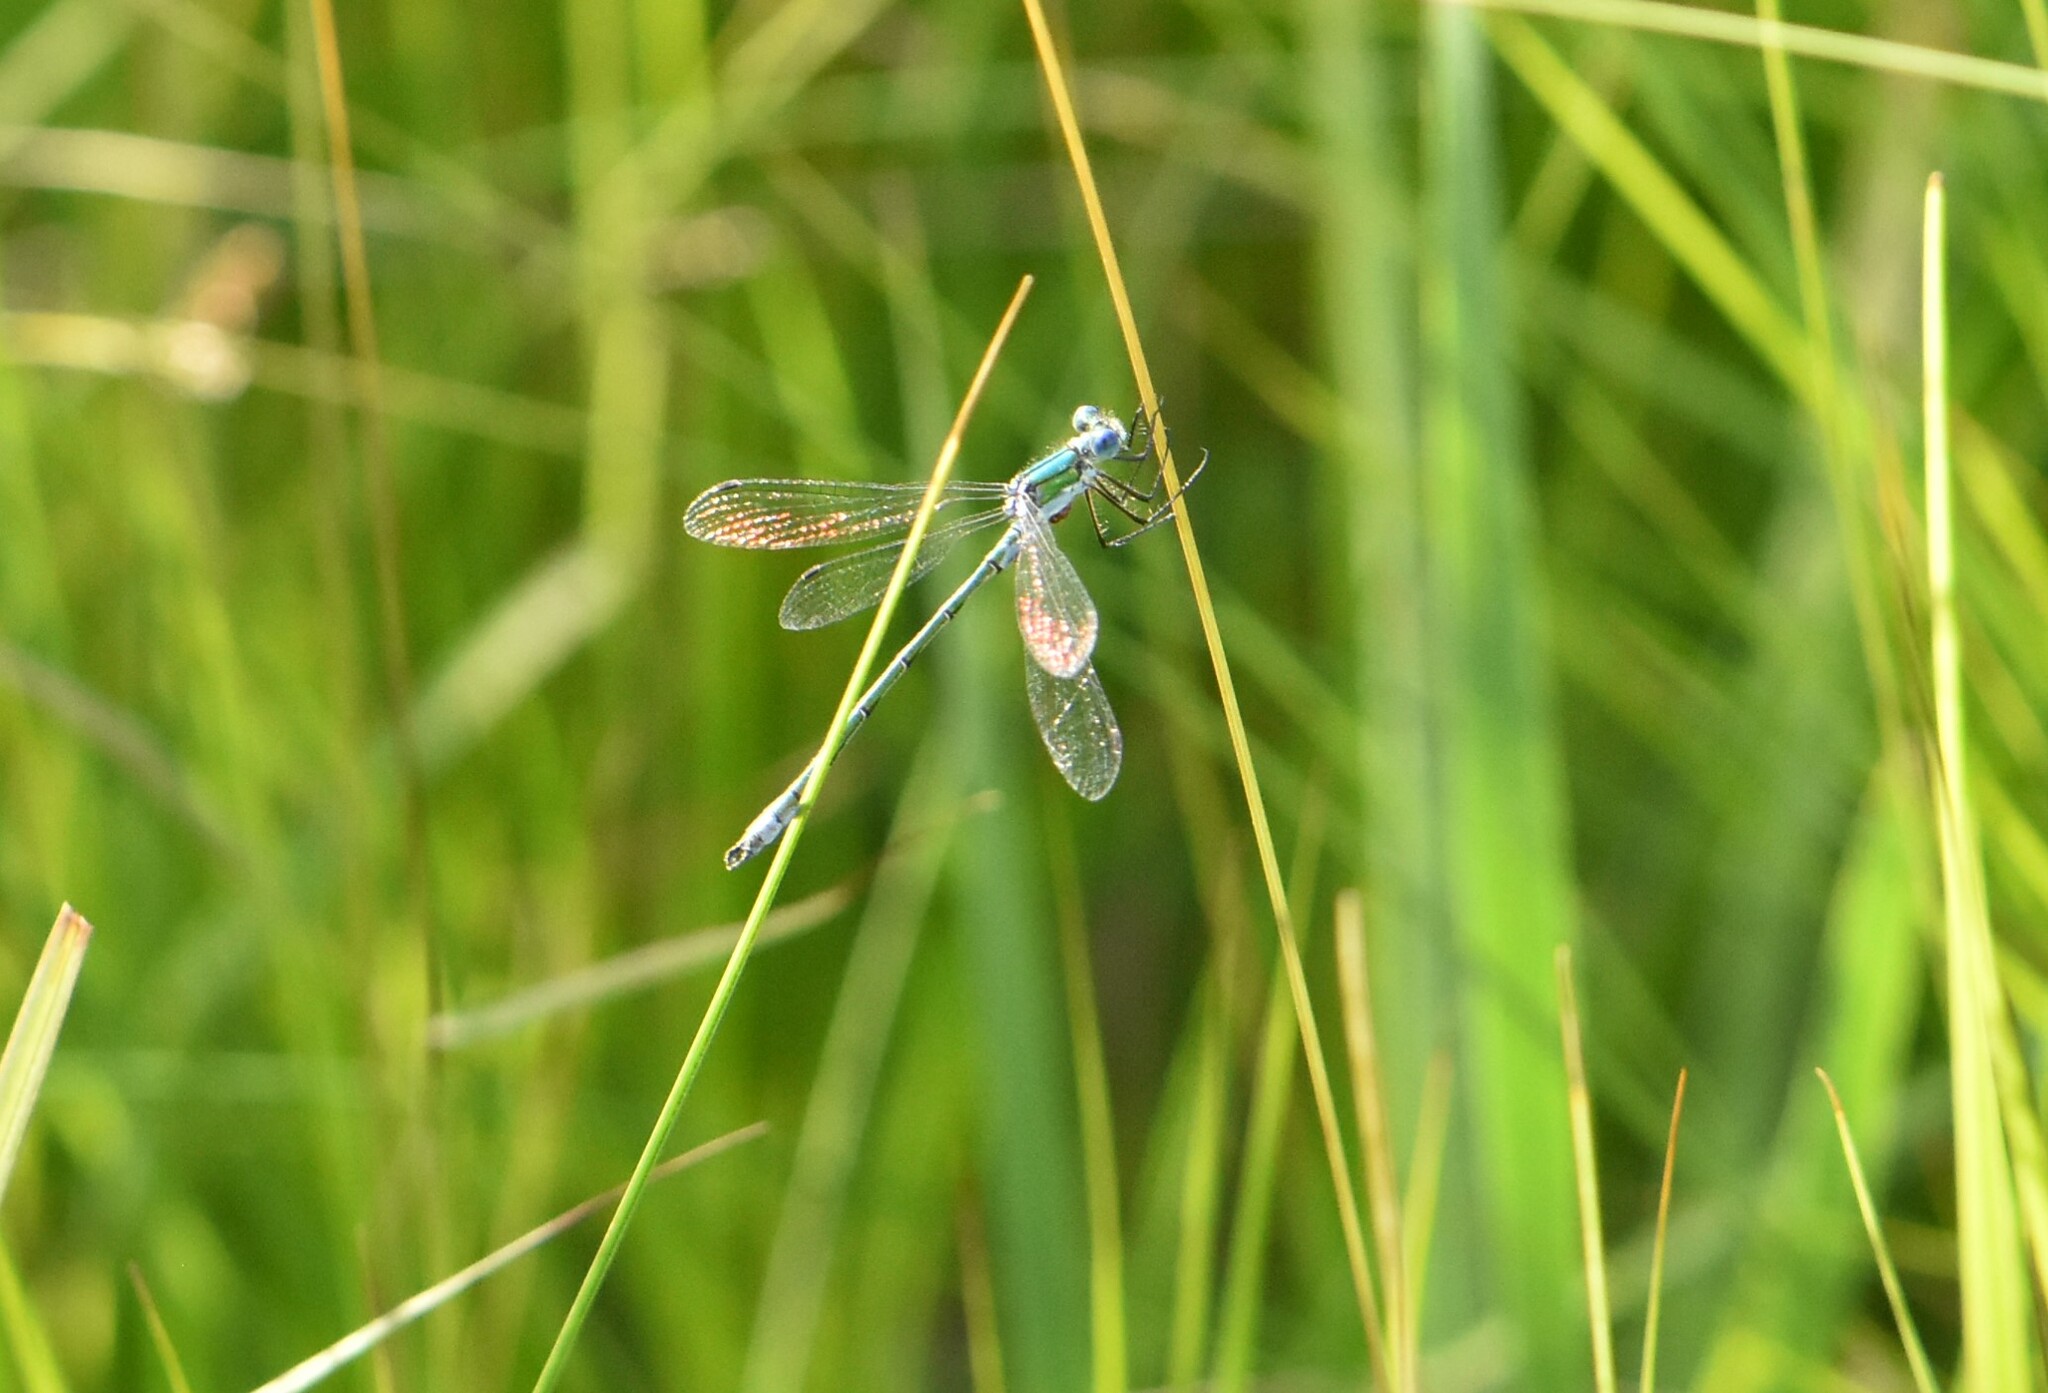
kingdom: Animalia
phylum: Arthropoda
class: Insecta
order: Odonata
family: Lestidae
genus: Lestes
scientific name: Lestes sponsa
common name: Common spreadwing
